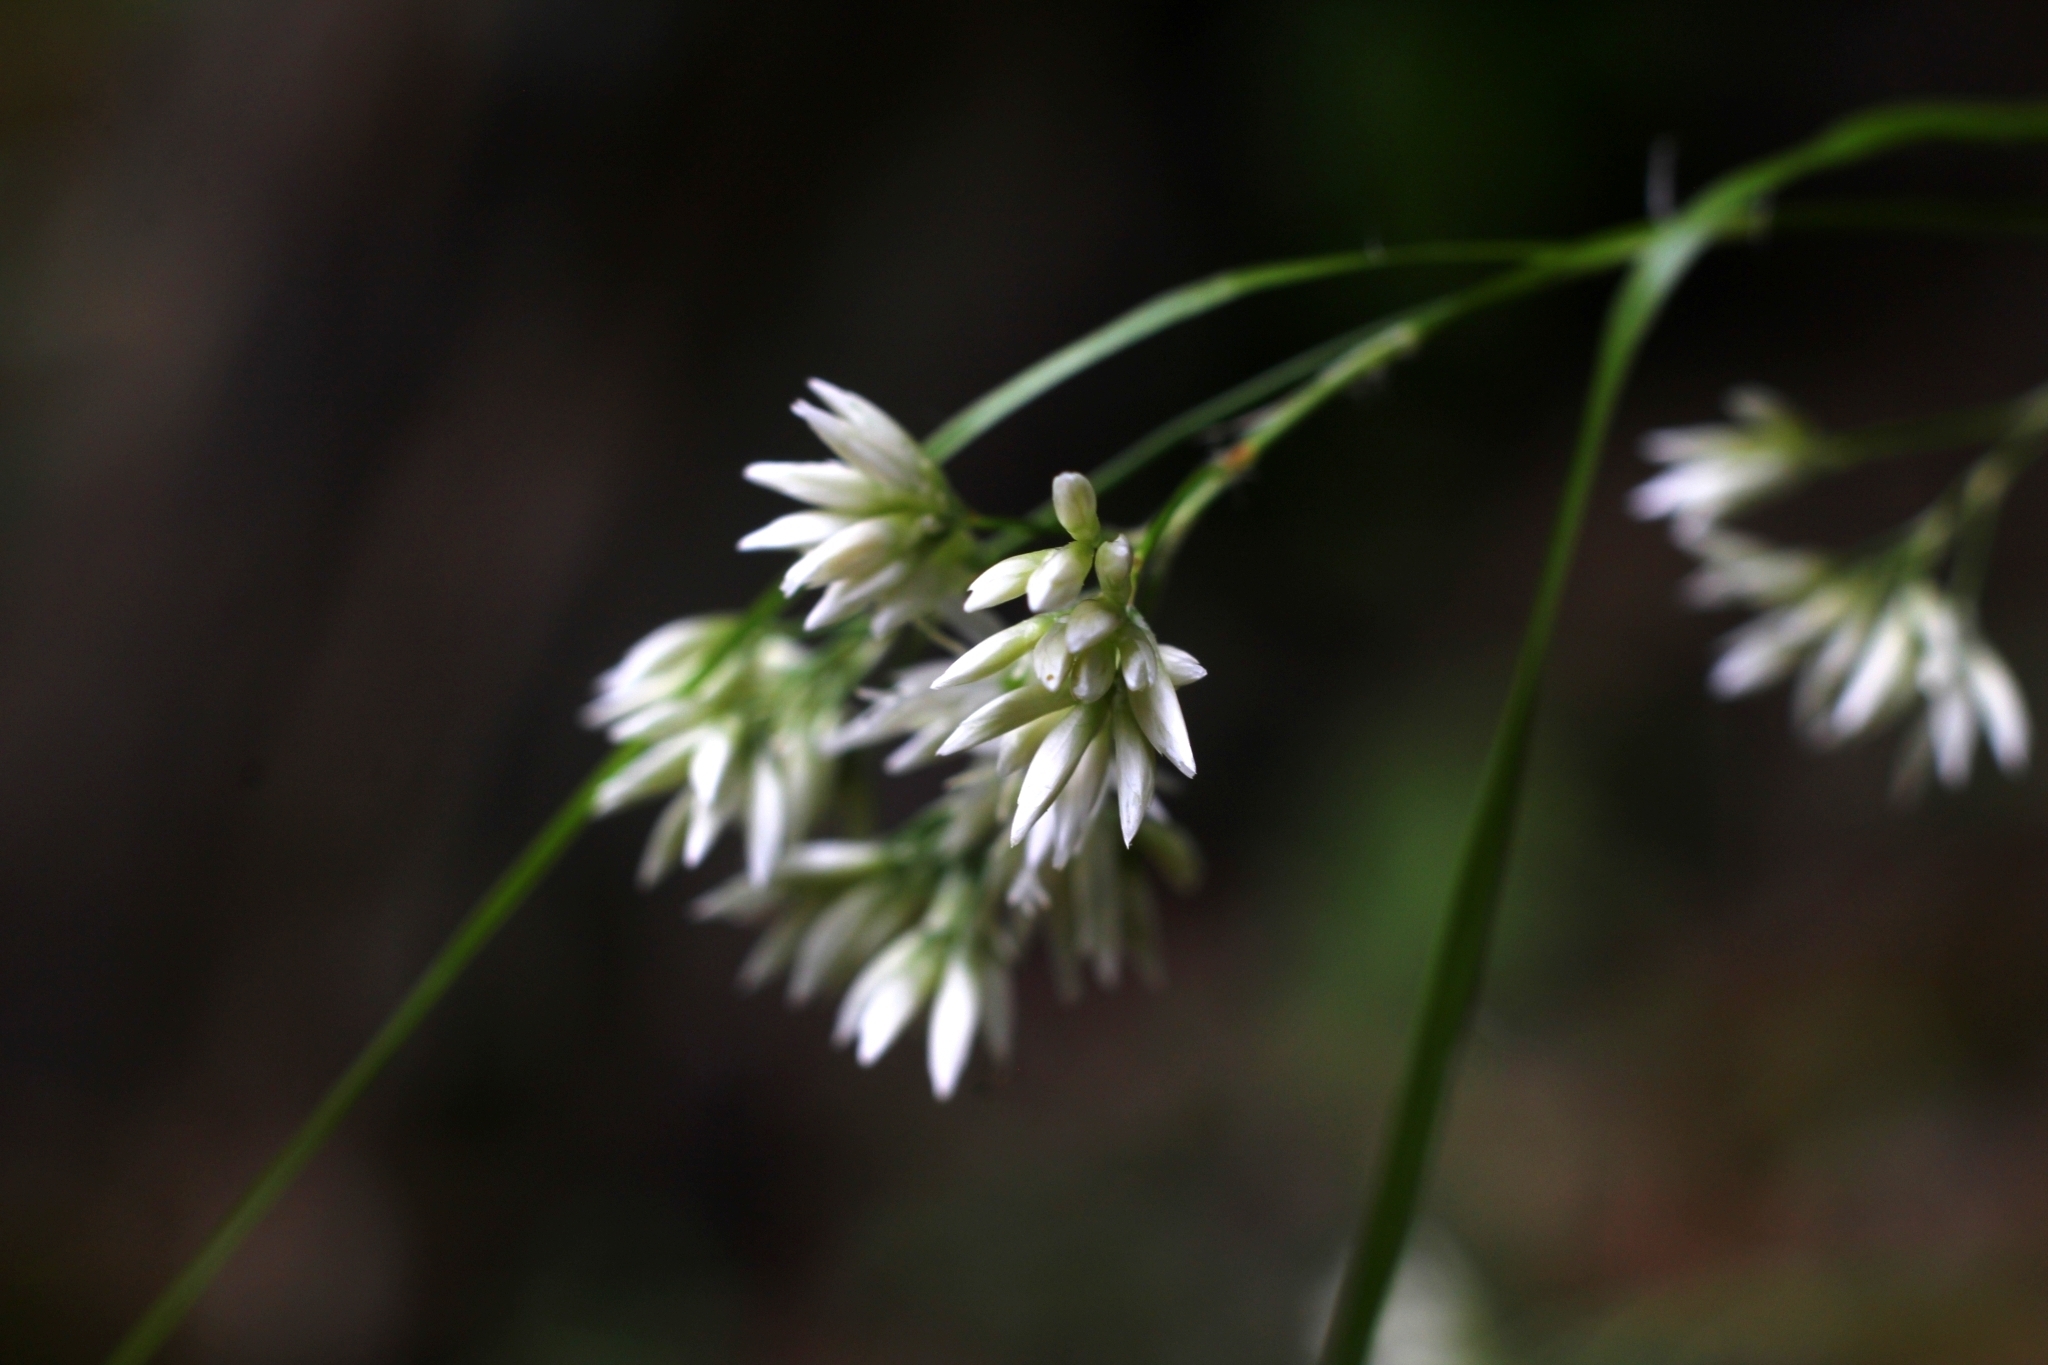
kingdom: Plantae
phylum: Tracheophyta
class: Liliopsida
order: Poales
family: Juncaceae
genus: Luzula
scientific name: Luzula nivea
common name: Snow-white wood-rush
